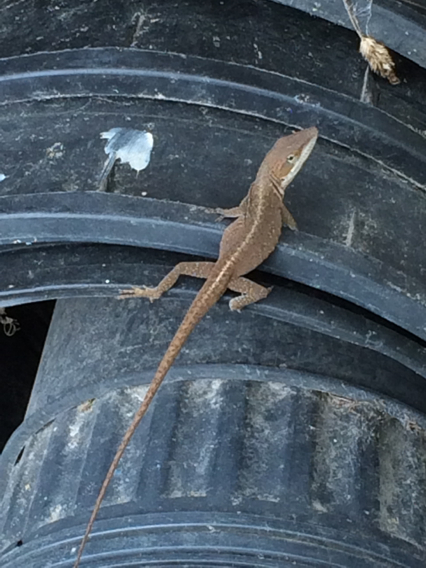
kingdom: Animalia
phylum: Chordata
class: Squamata
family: Dactyloidae
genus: Anolis
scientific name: Anolis carolinensis
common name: Green anole
